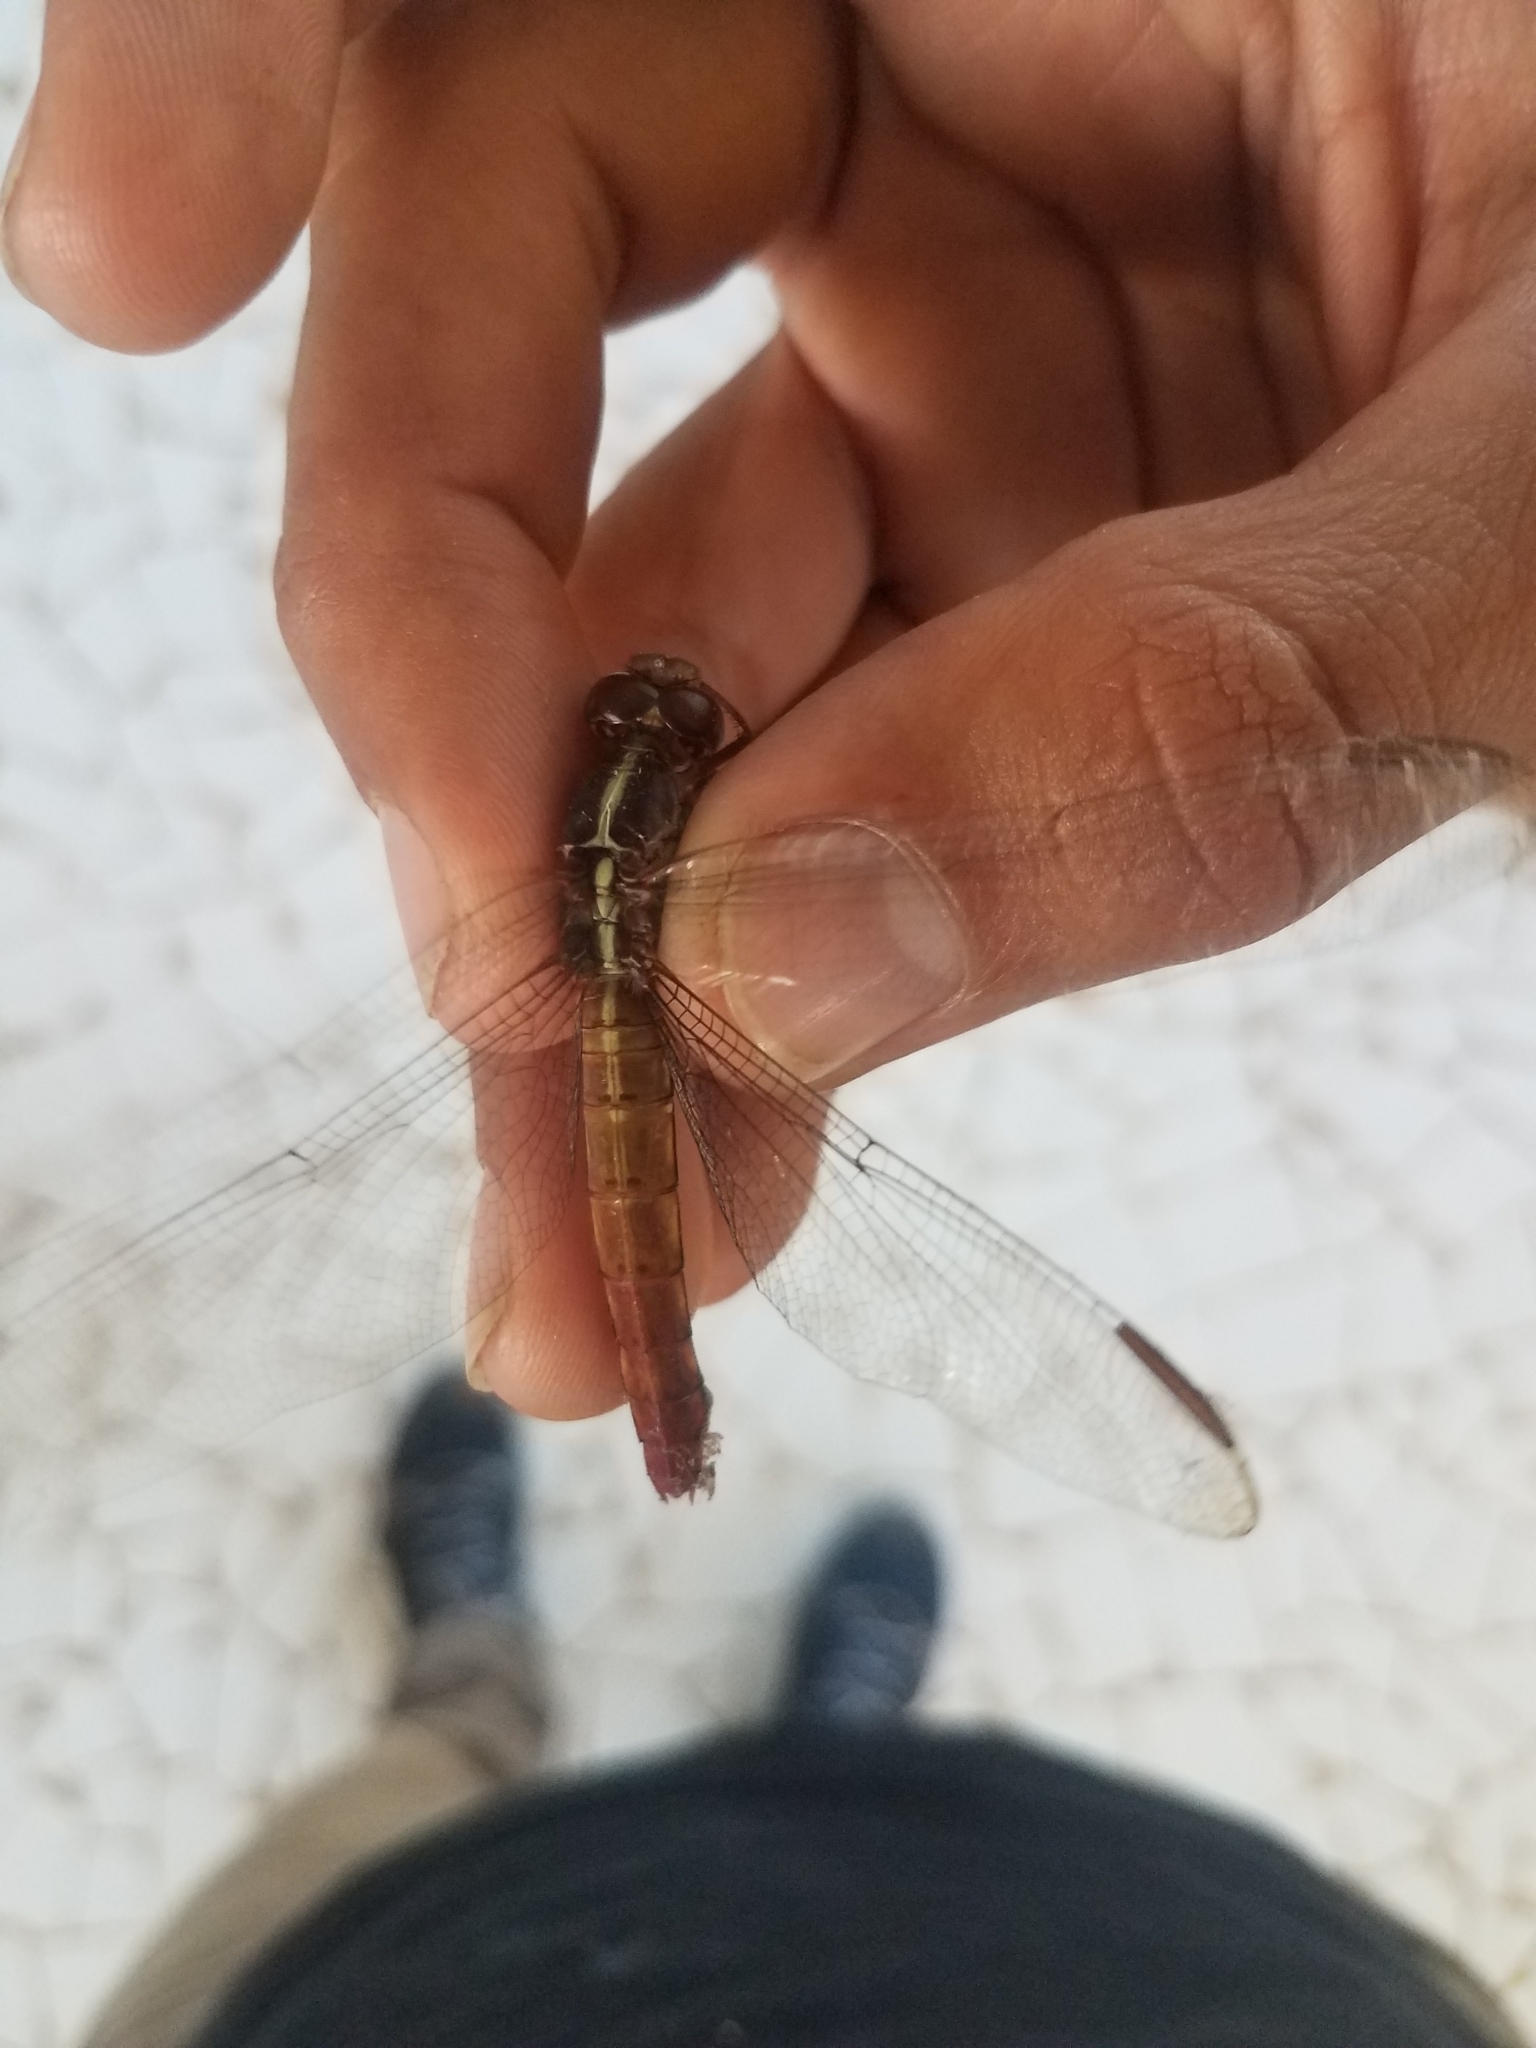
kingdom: Animalia
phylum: Arthropoda
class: Insecta
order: Odonata
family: Libellulidae
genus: Orthemis
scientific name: Orthemis discolor
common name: Carmine skimmer
